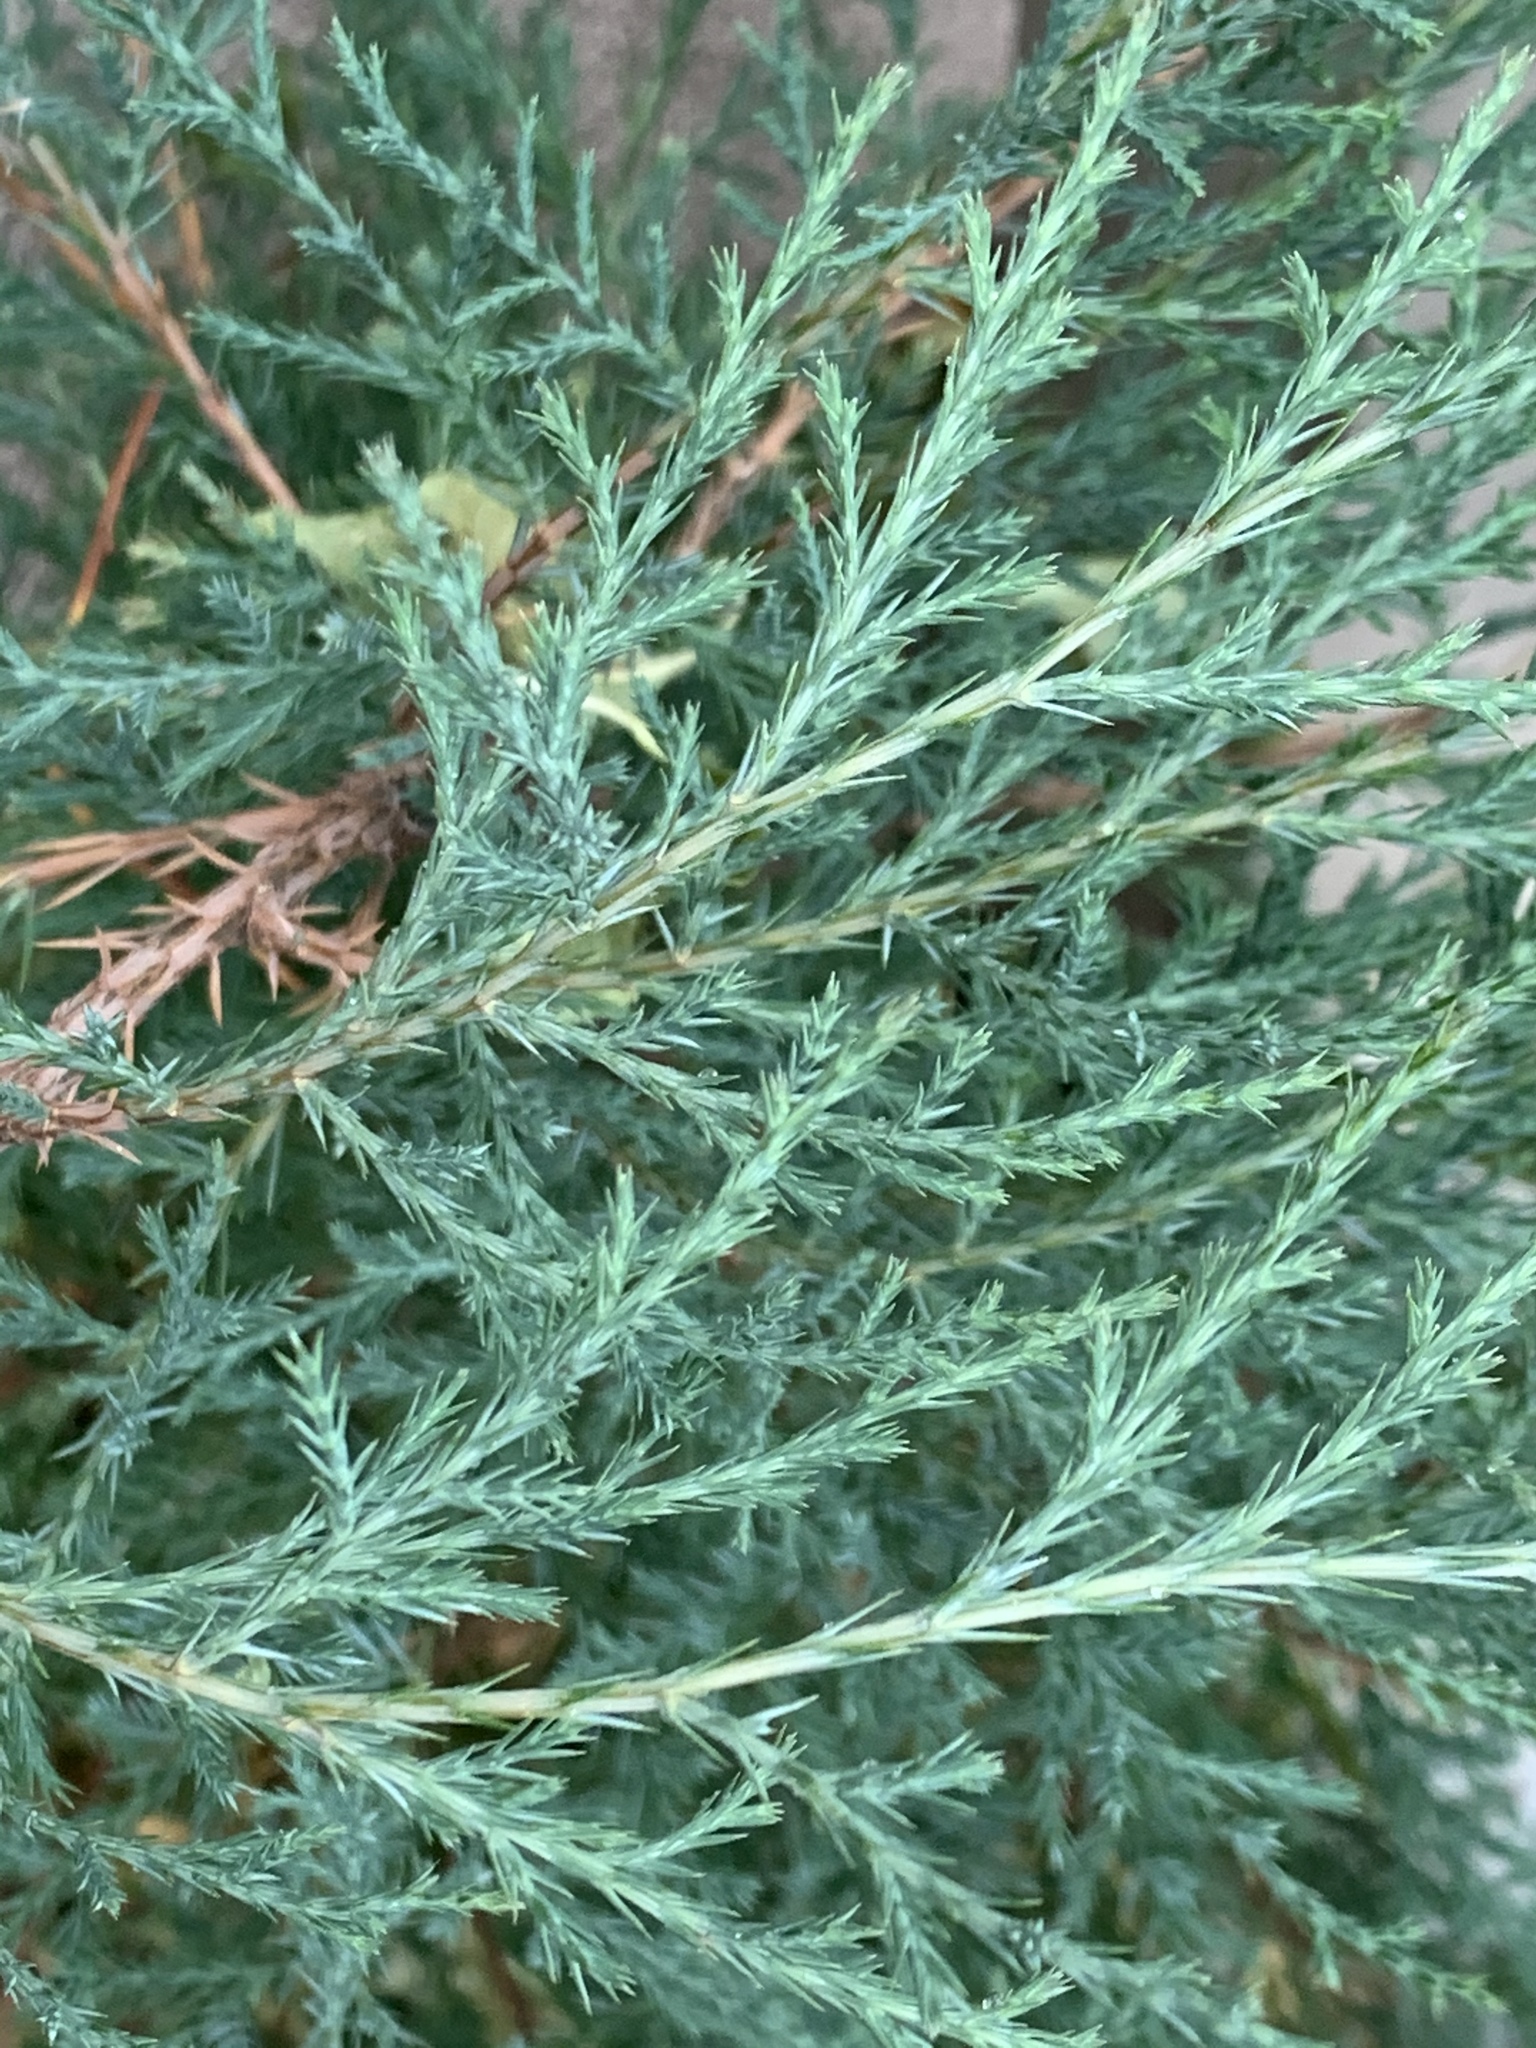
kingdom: Plantae
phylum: Tracheophyta
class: Pinopsida
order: Pinales
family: Cupressaceae
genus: Juniperus
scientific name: Juniperus virginiana
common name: Red juniper
